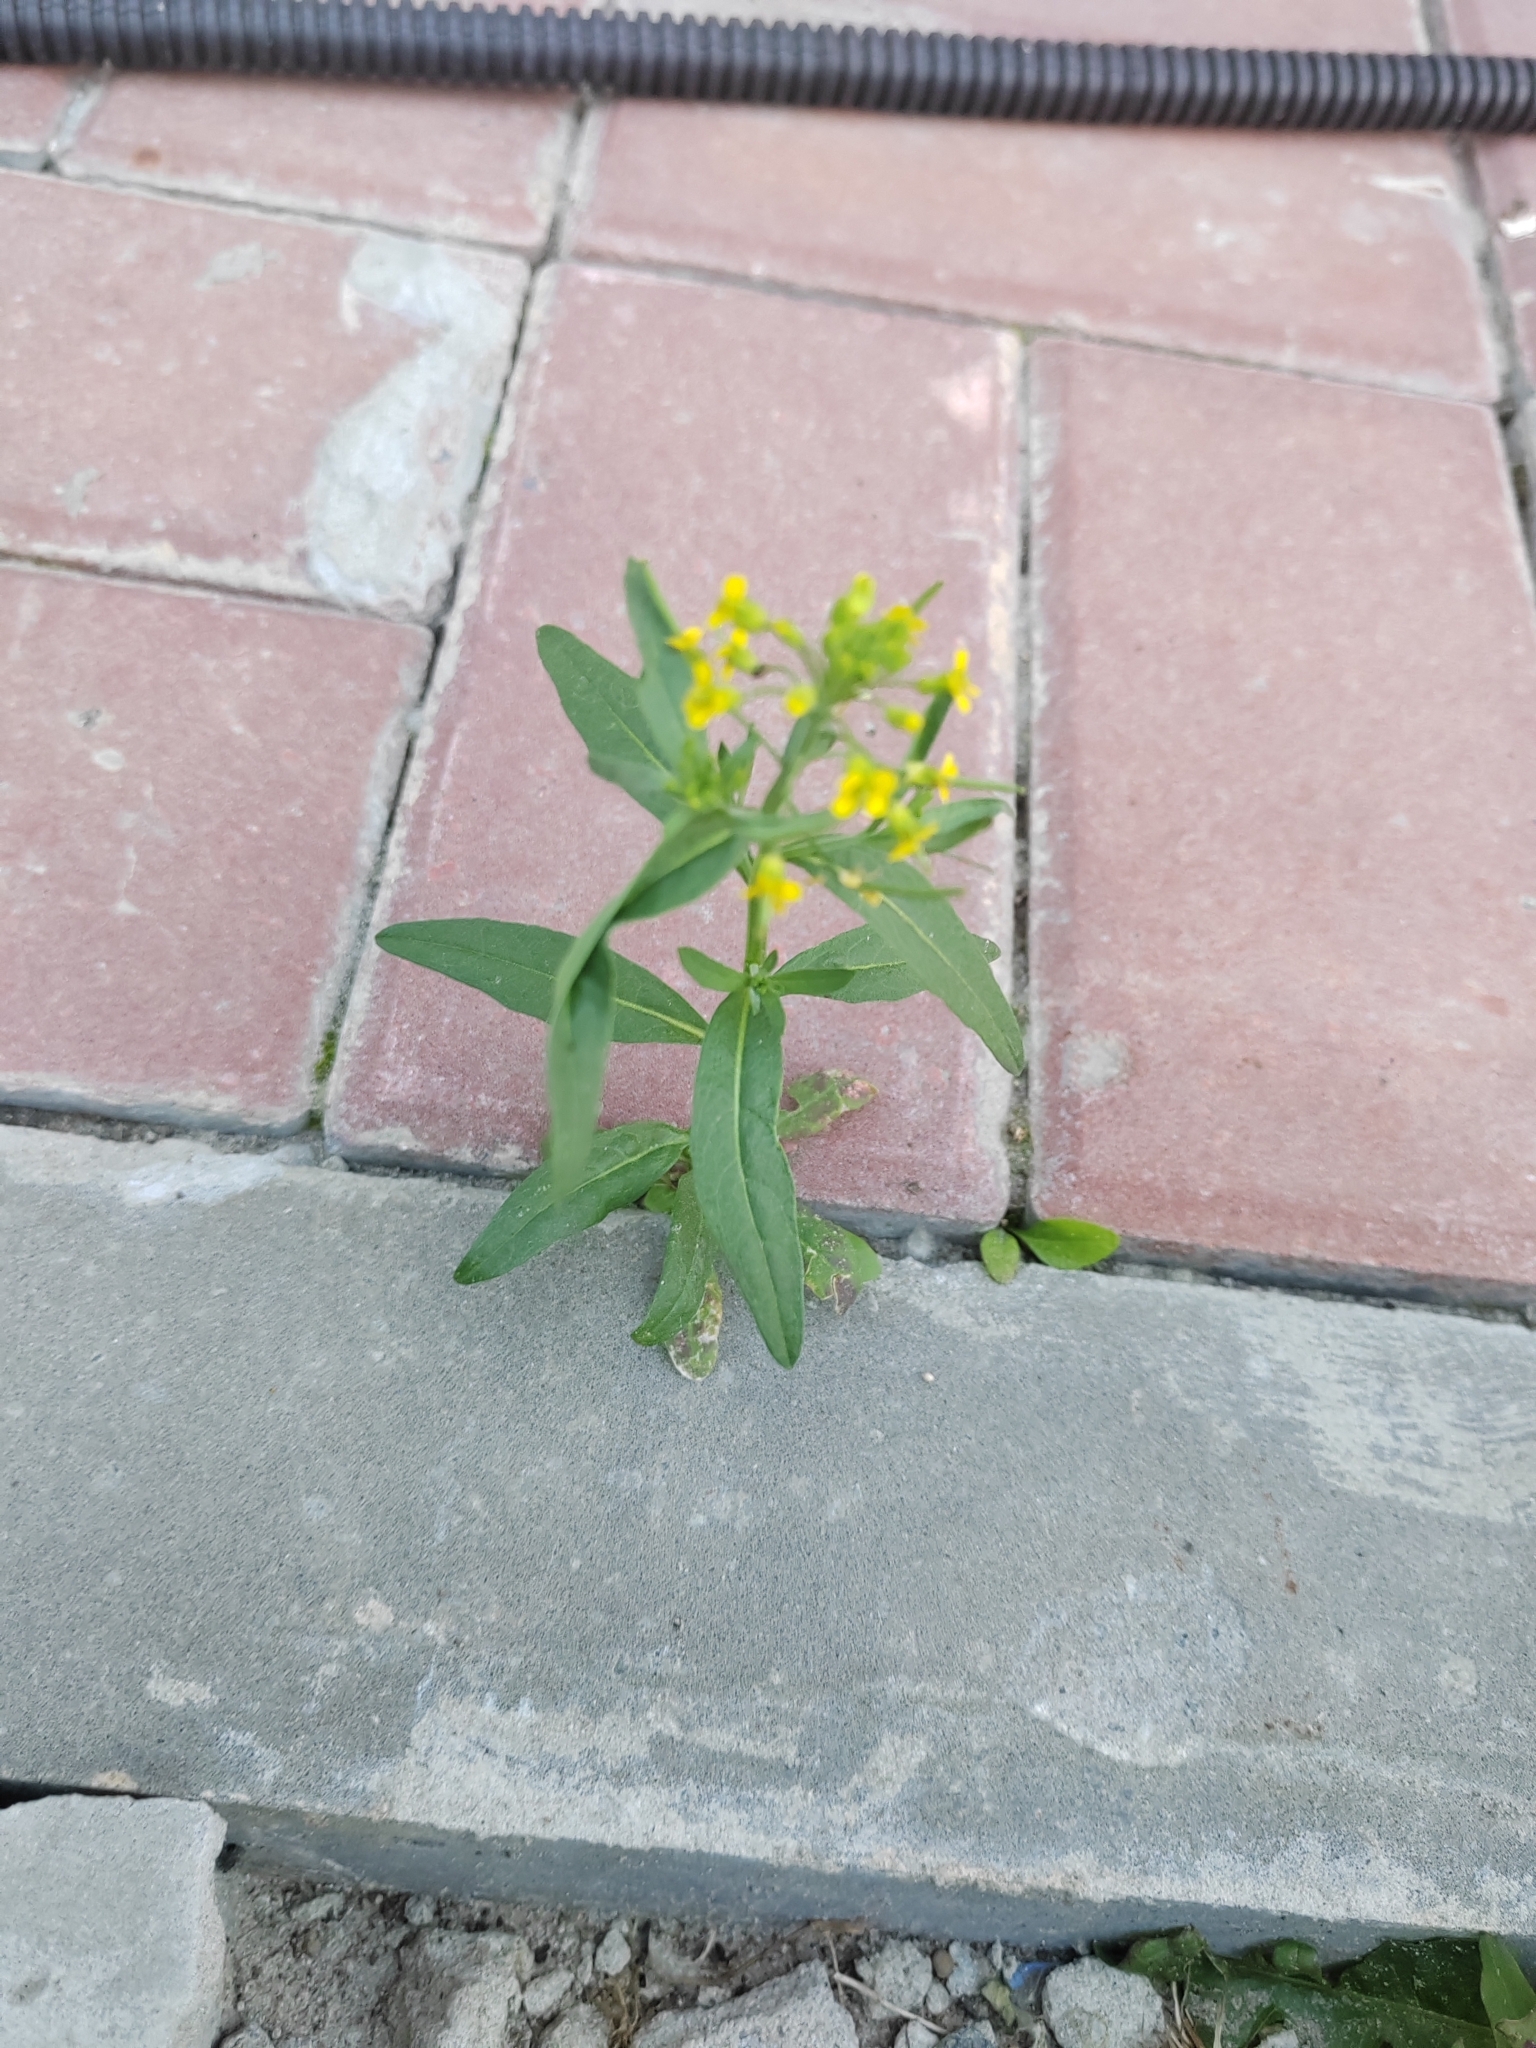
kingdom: Plantae
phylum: Tracheophyta
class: Magnoliopsida
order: Brassicales
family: Brassicaceae
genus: Erysimum
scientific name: Erysimum cheiranthoides
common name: Treacle mustard
